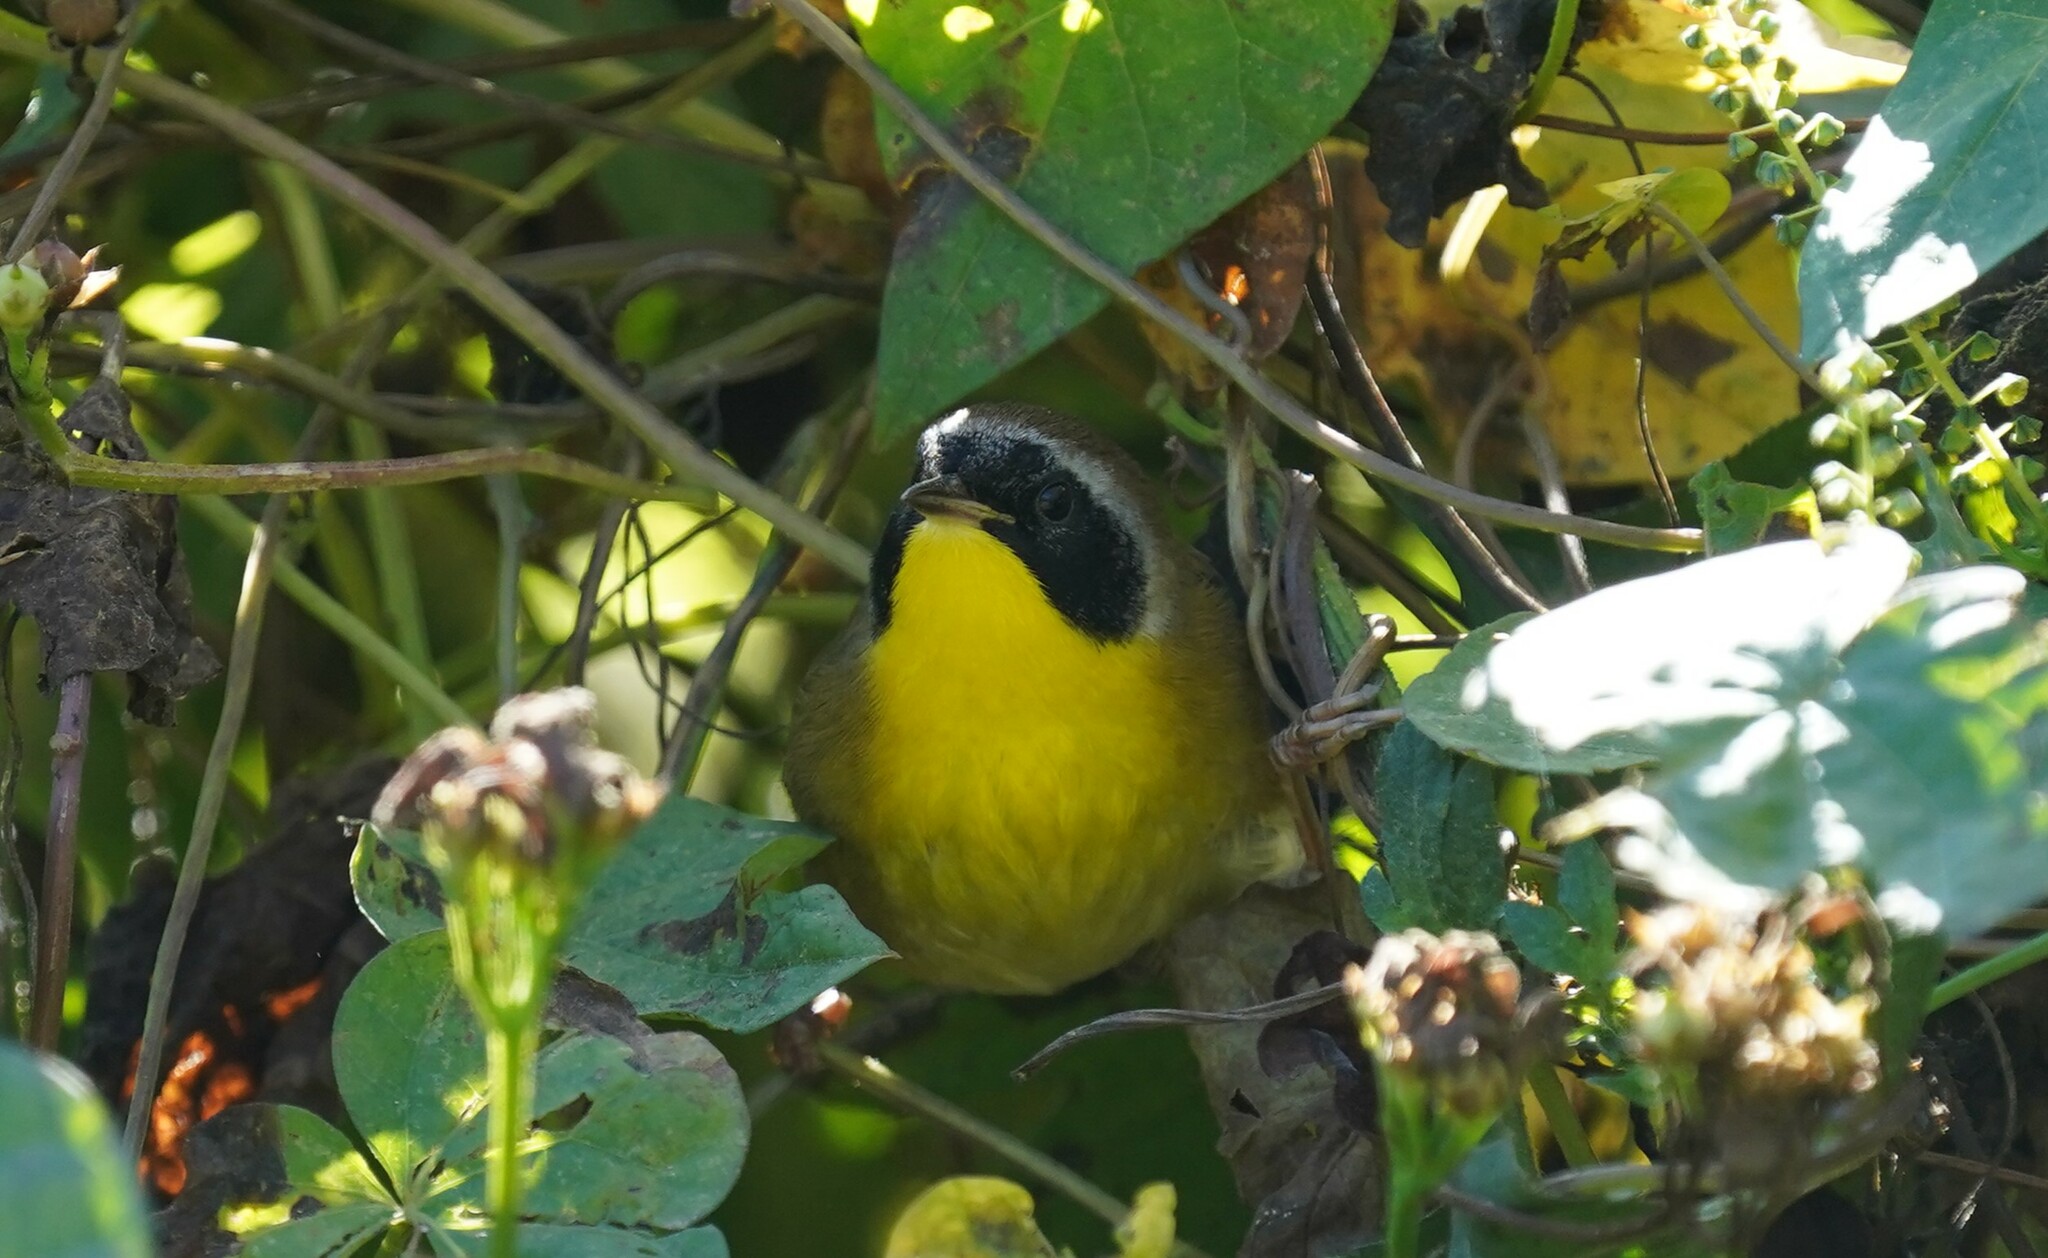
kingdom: Animalia
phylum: Chordata
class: Aves
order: Passeriformes
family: Parulidae
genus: Geothlypis
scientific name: Geothlypis trichas
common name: Common yellowthroat
